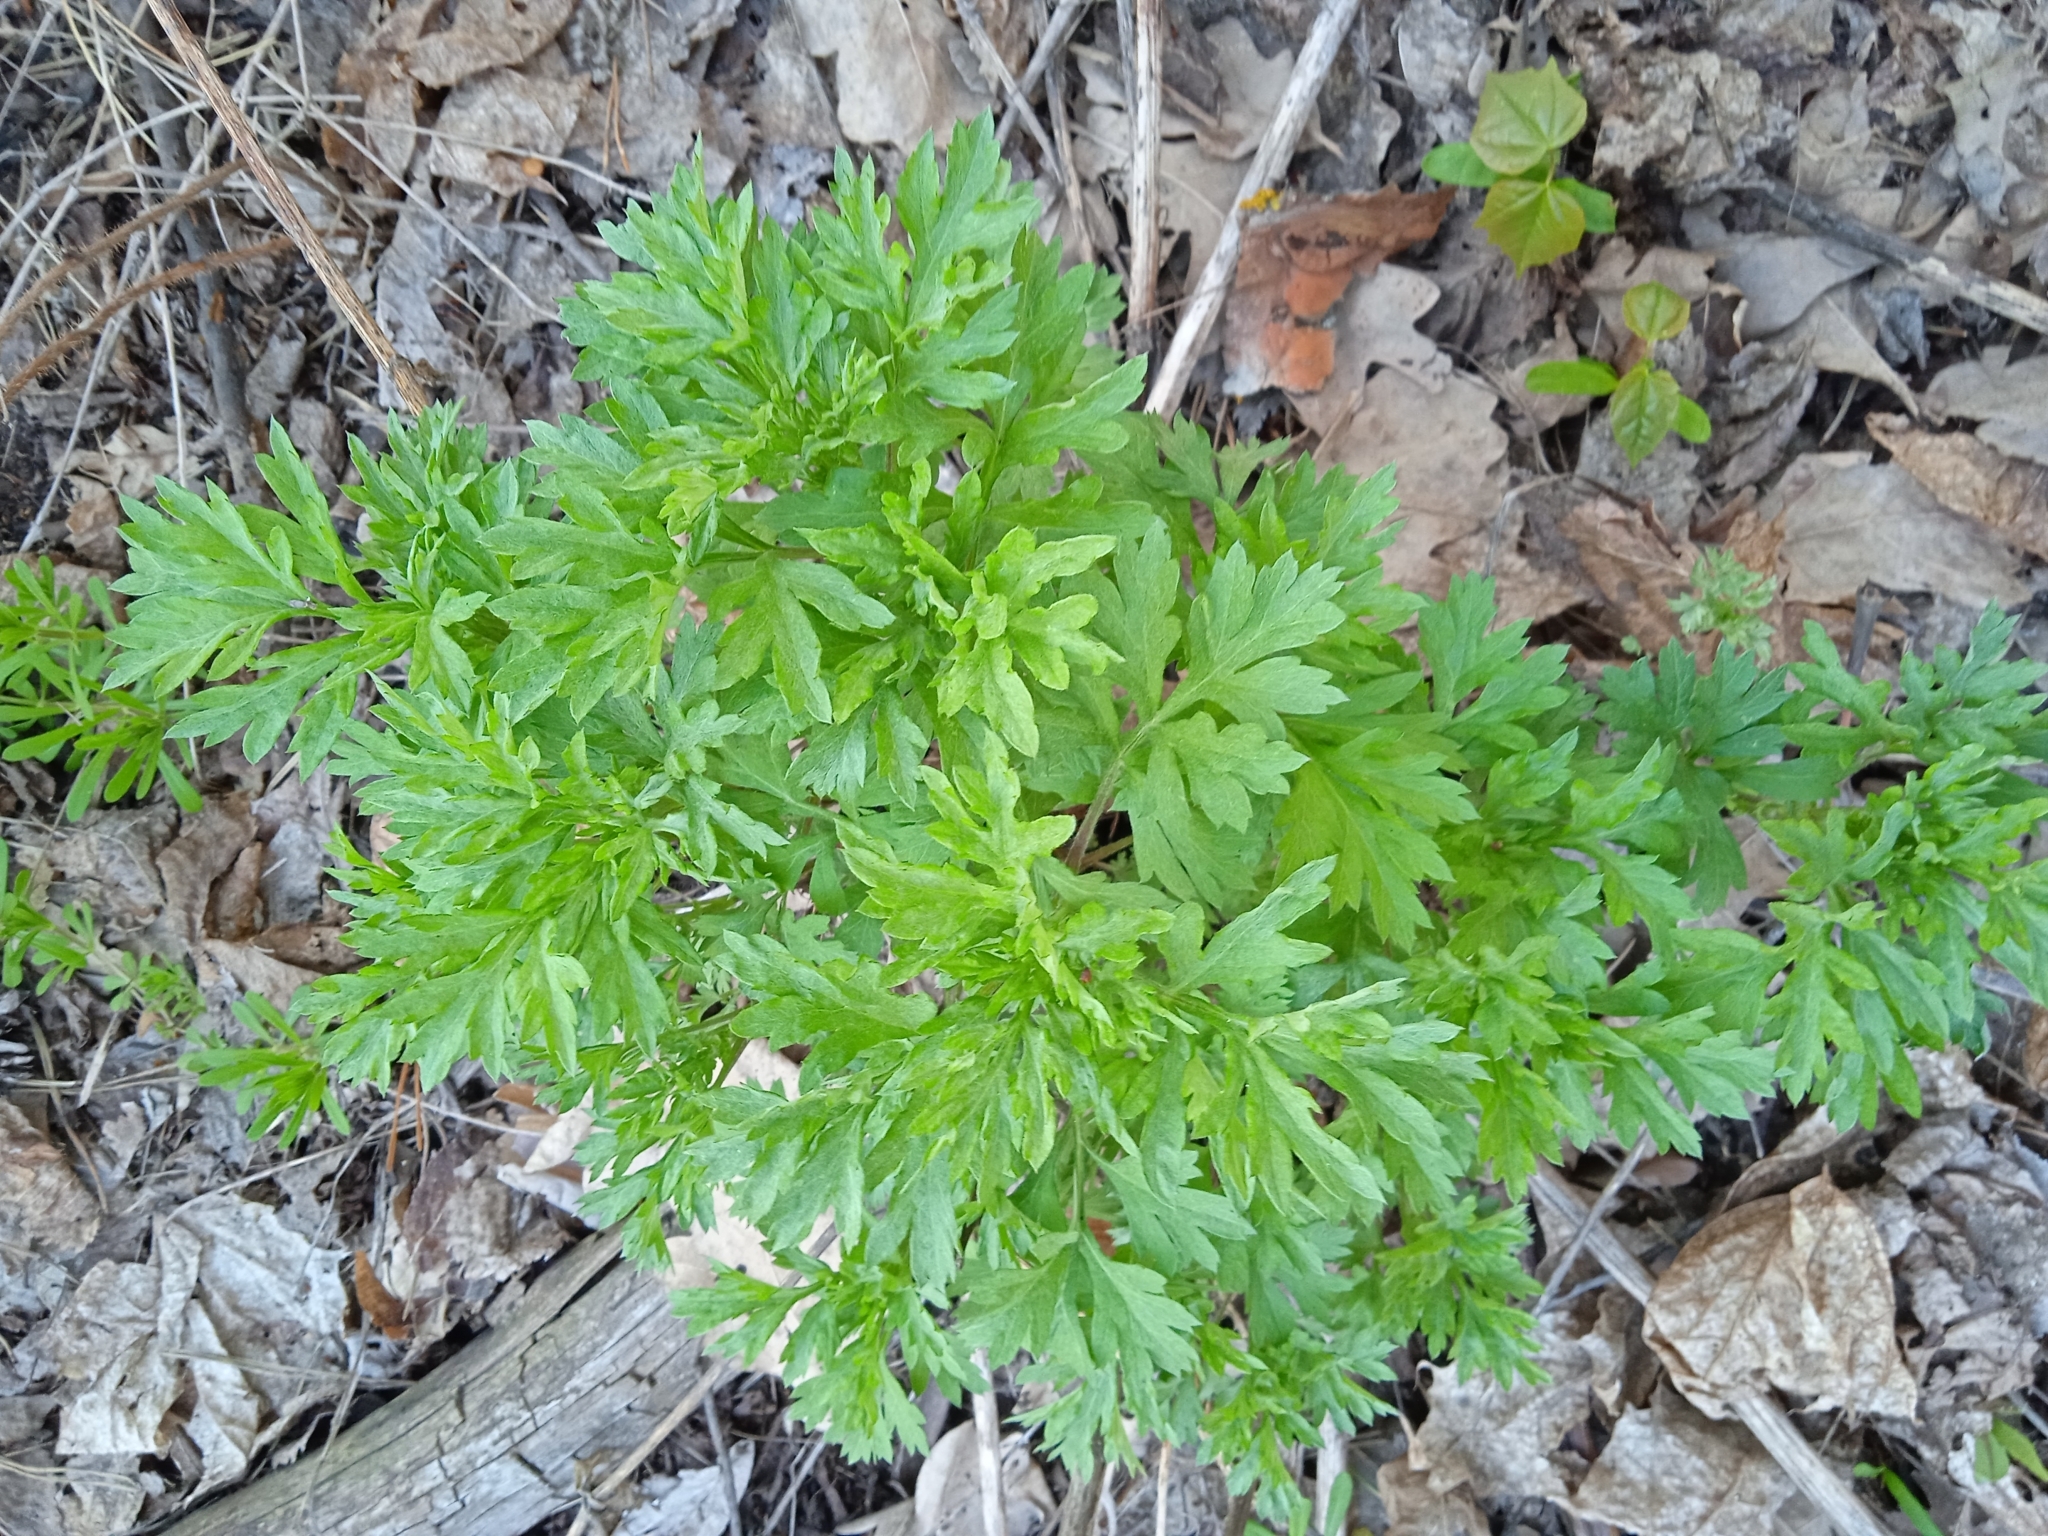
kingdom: Plantae
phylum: Tracheophyta
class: Magnoliopsida
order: Asterales
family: Asteraceae
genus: Artemisia
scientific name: Artemisia vulgaris
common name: Mugwort
